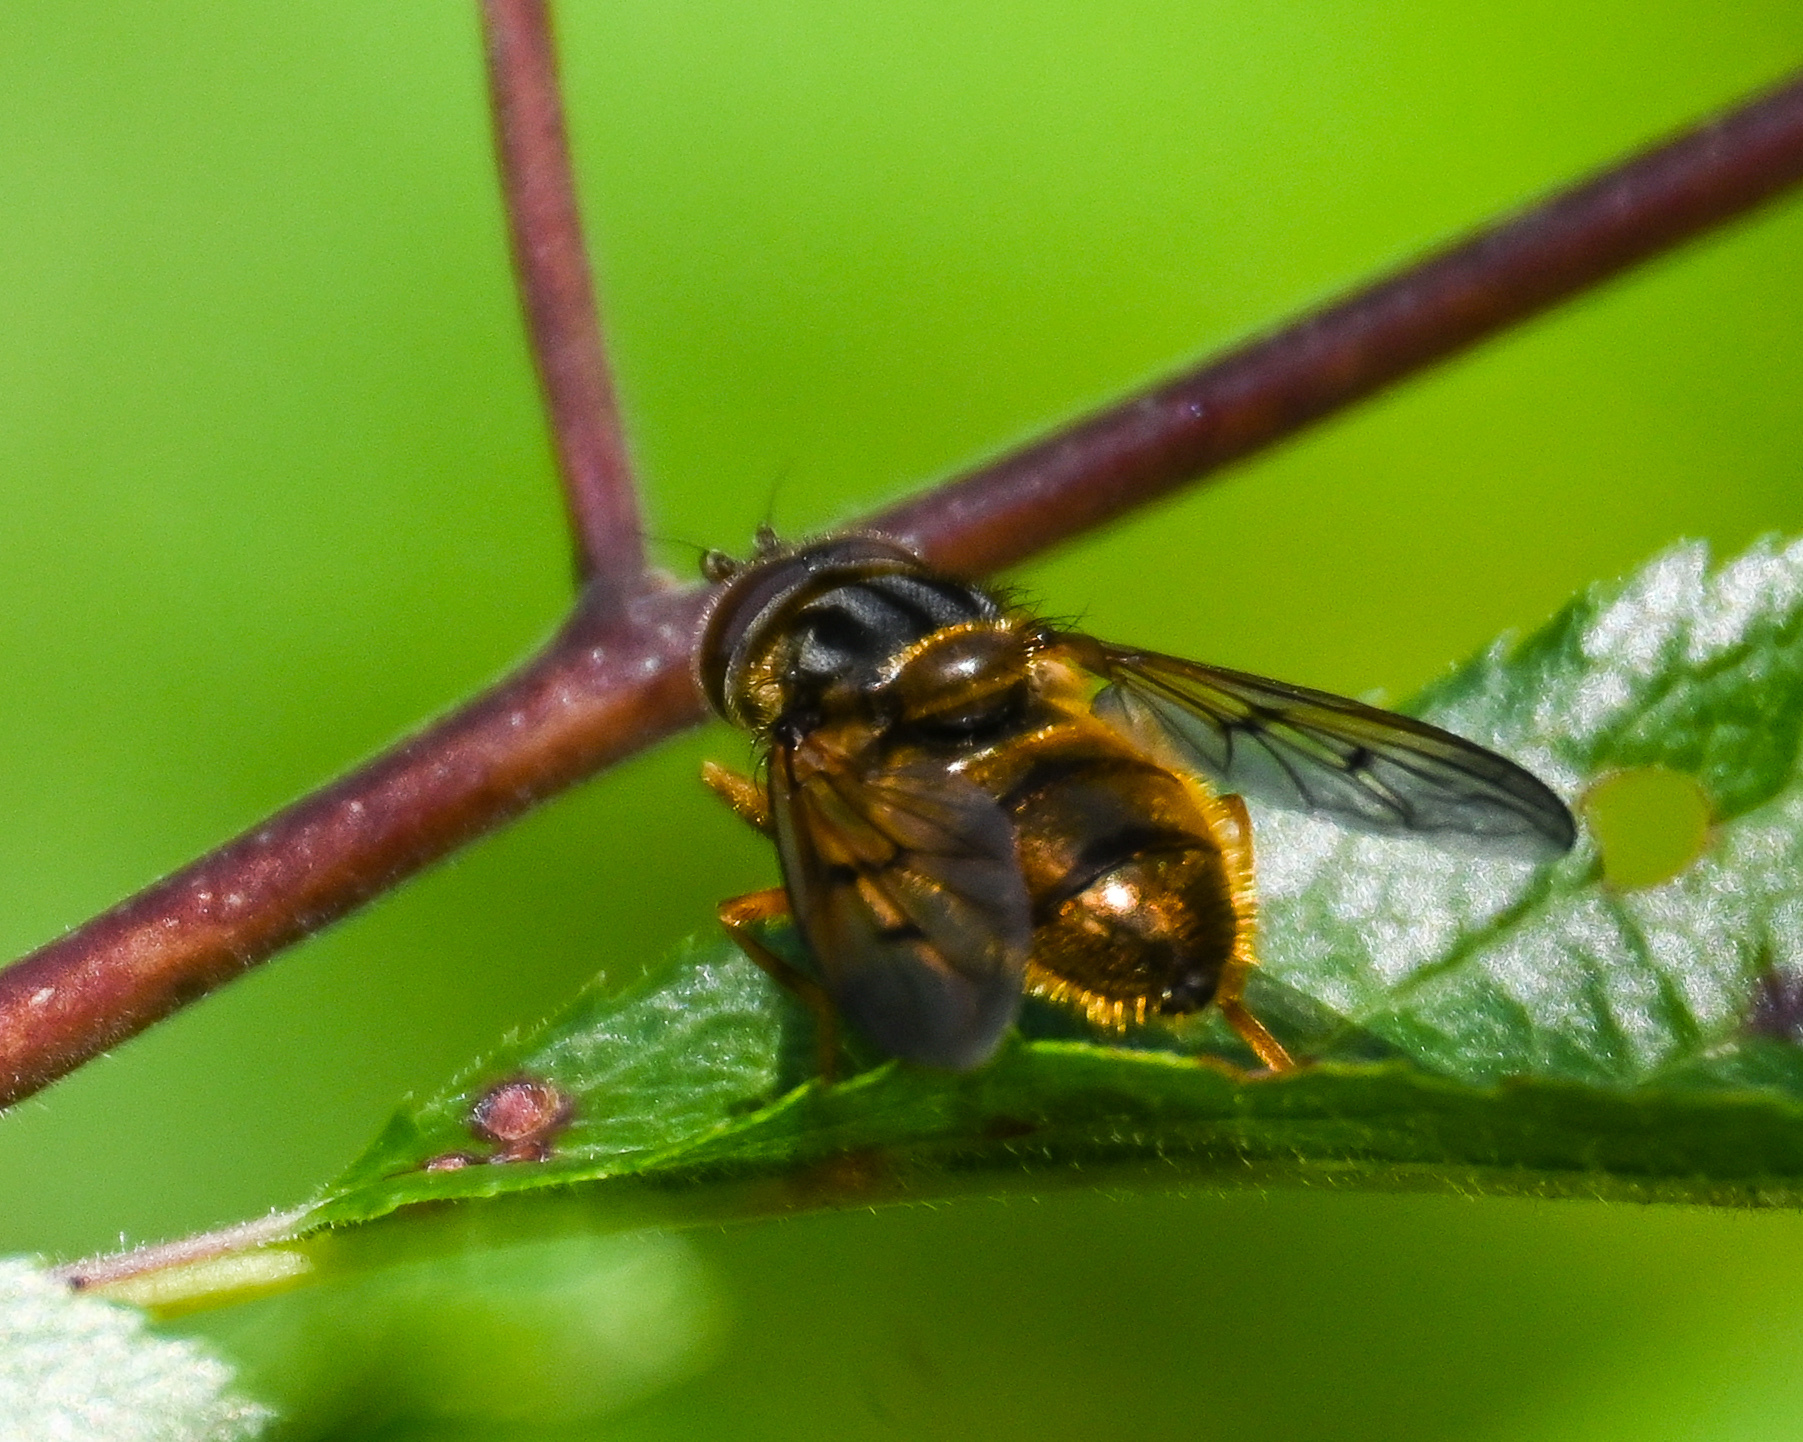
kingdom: Animalia
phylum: Arthropoda
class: Insecta
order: Diptera
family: Syrphidae
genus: Ferdinandea
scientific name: Ferdinandea cuprea
